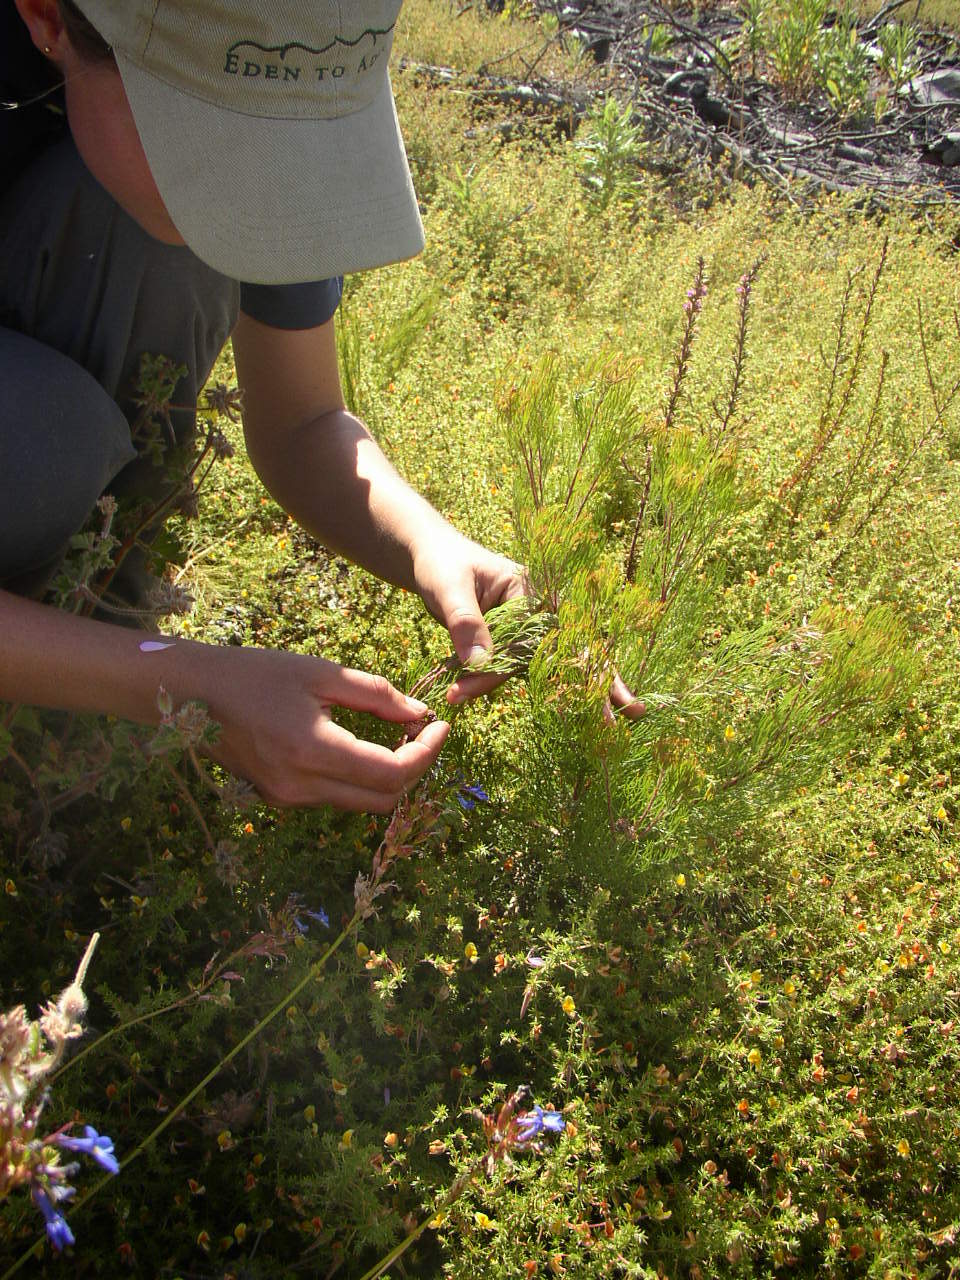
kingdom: Plantae
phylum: Tracheophyta
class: Magnoliopsida
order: Proteales
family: Proteaceae
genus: Serruria
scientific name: Serruria fasciflora
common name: Common pin spiderhead
